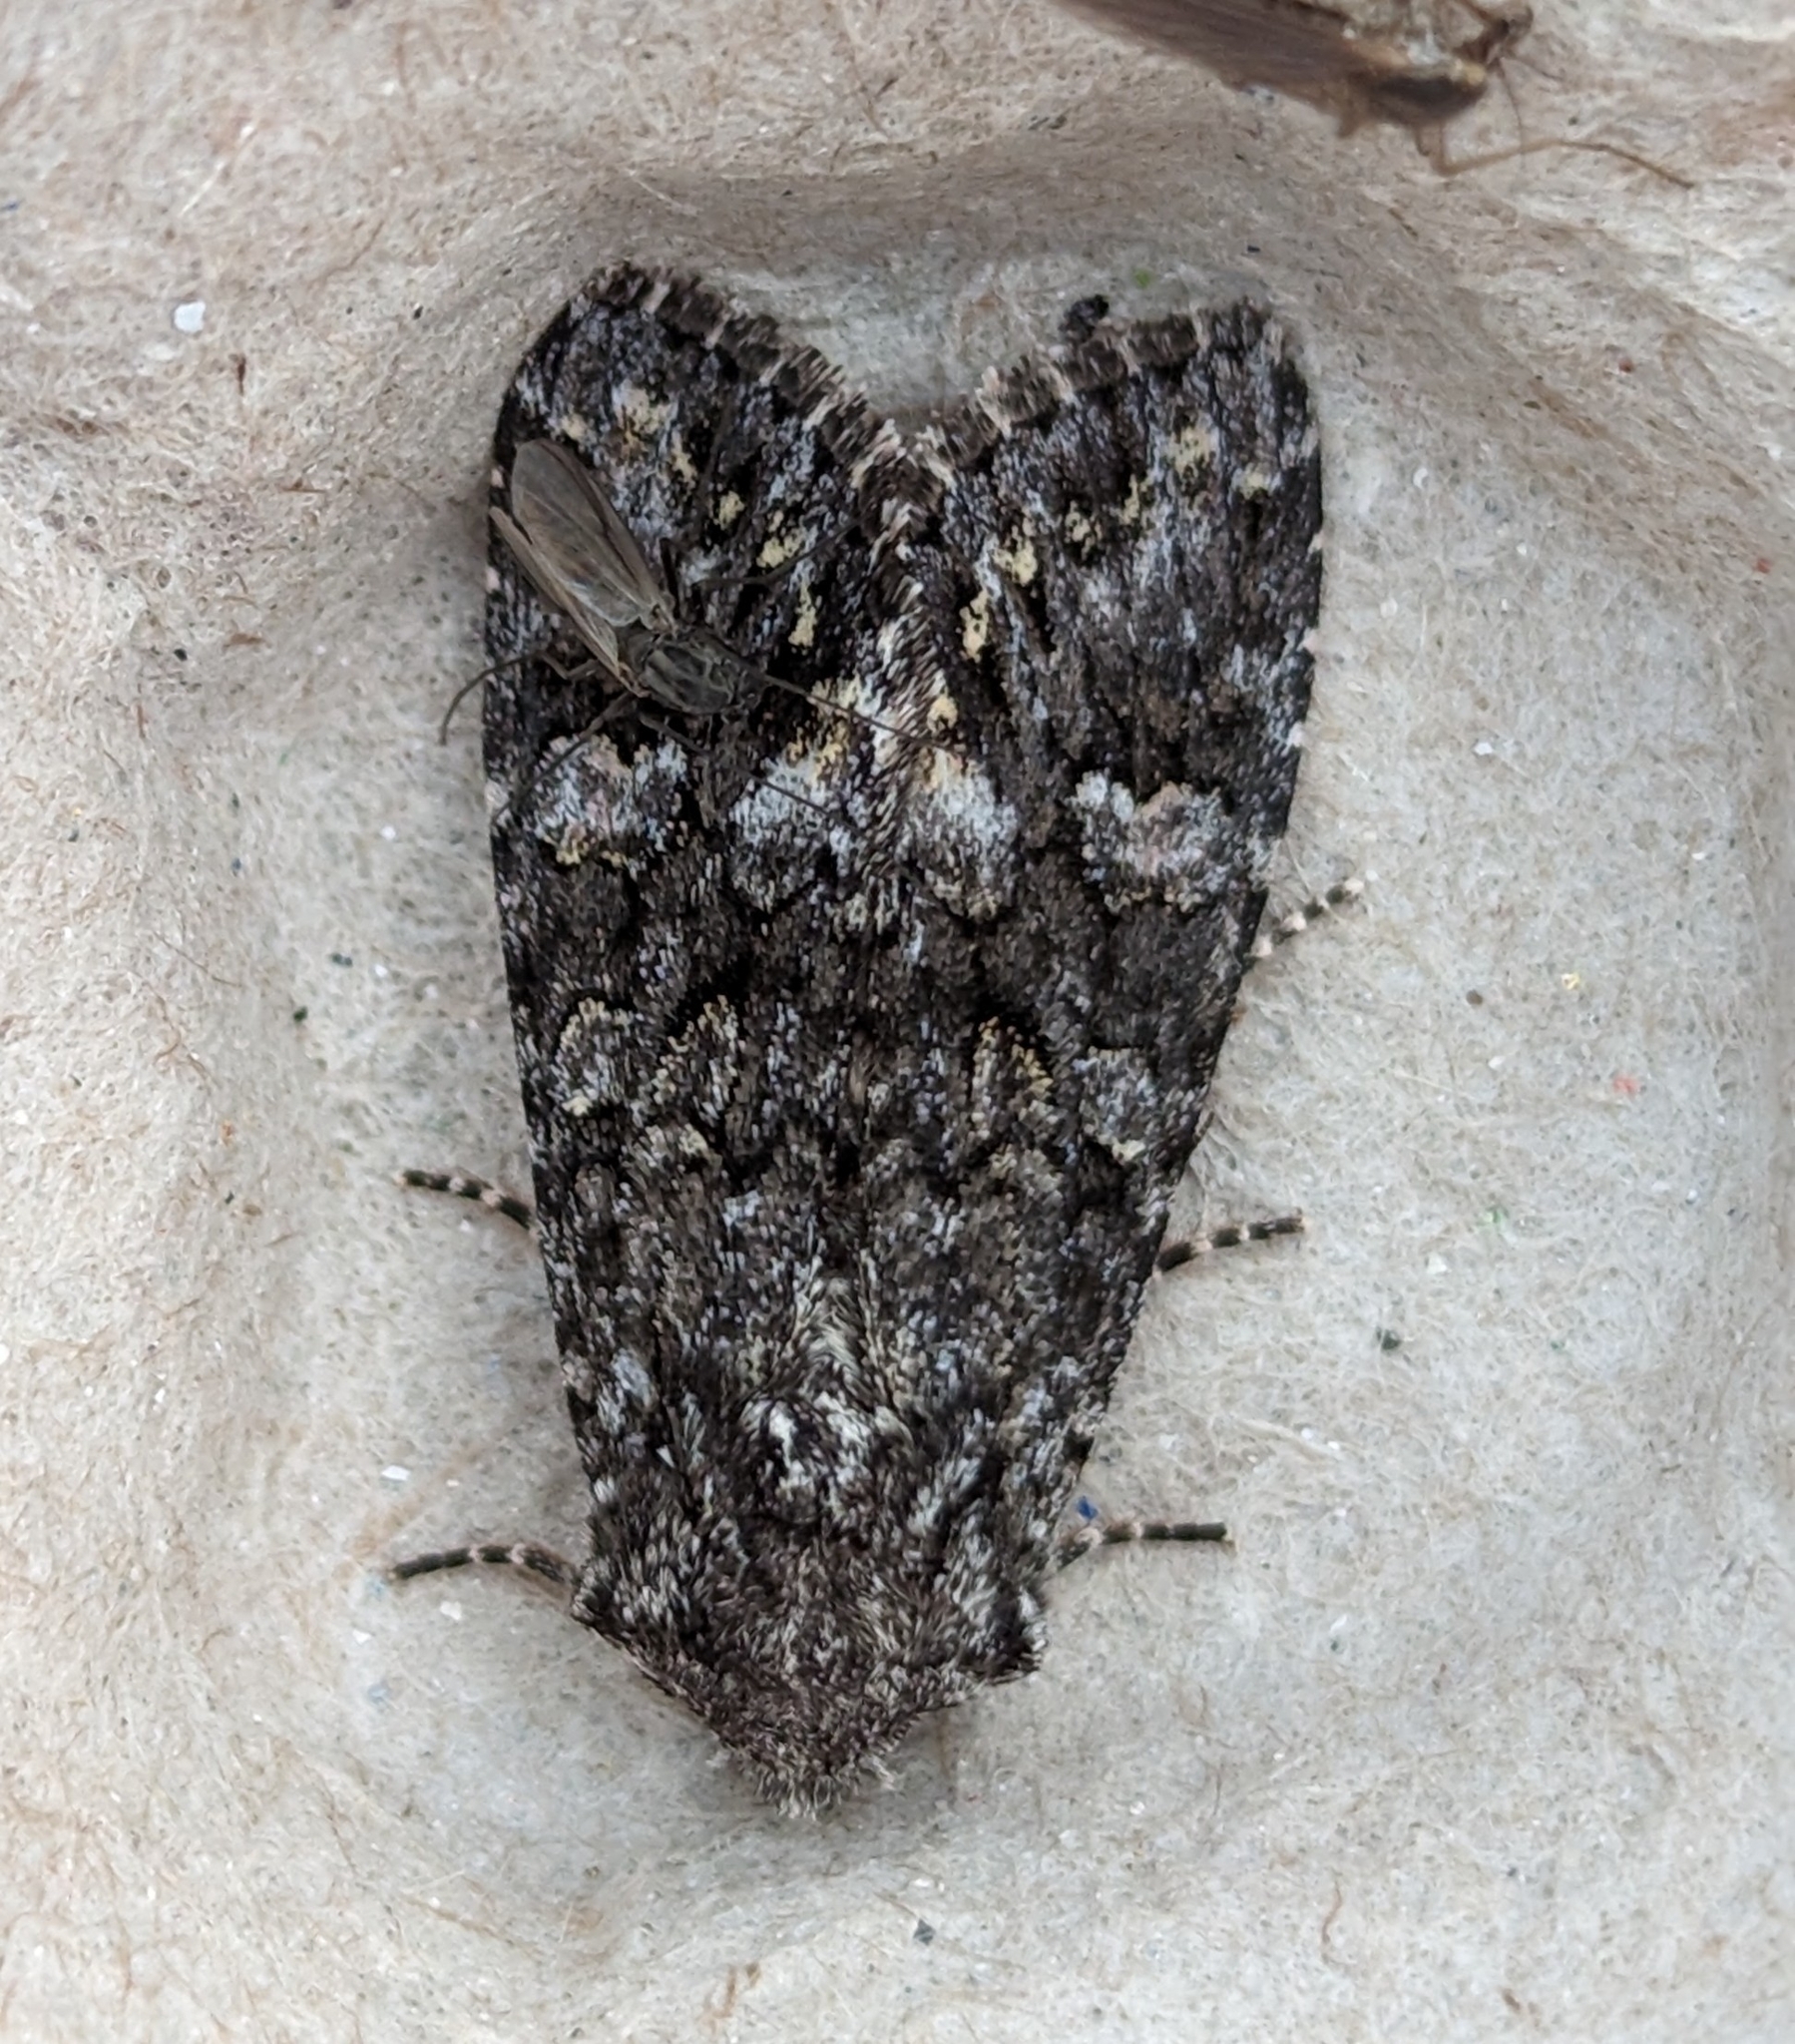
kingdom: Animalia
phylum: Arthropoda
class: Insecta
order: Lepidoptera
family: Noctuidae
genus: Papestra
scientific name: Papestra cristifera
